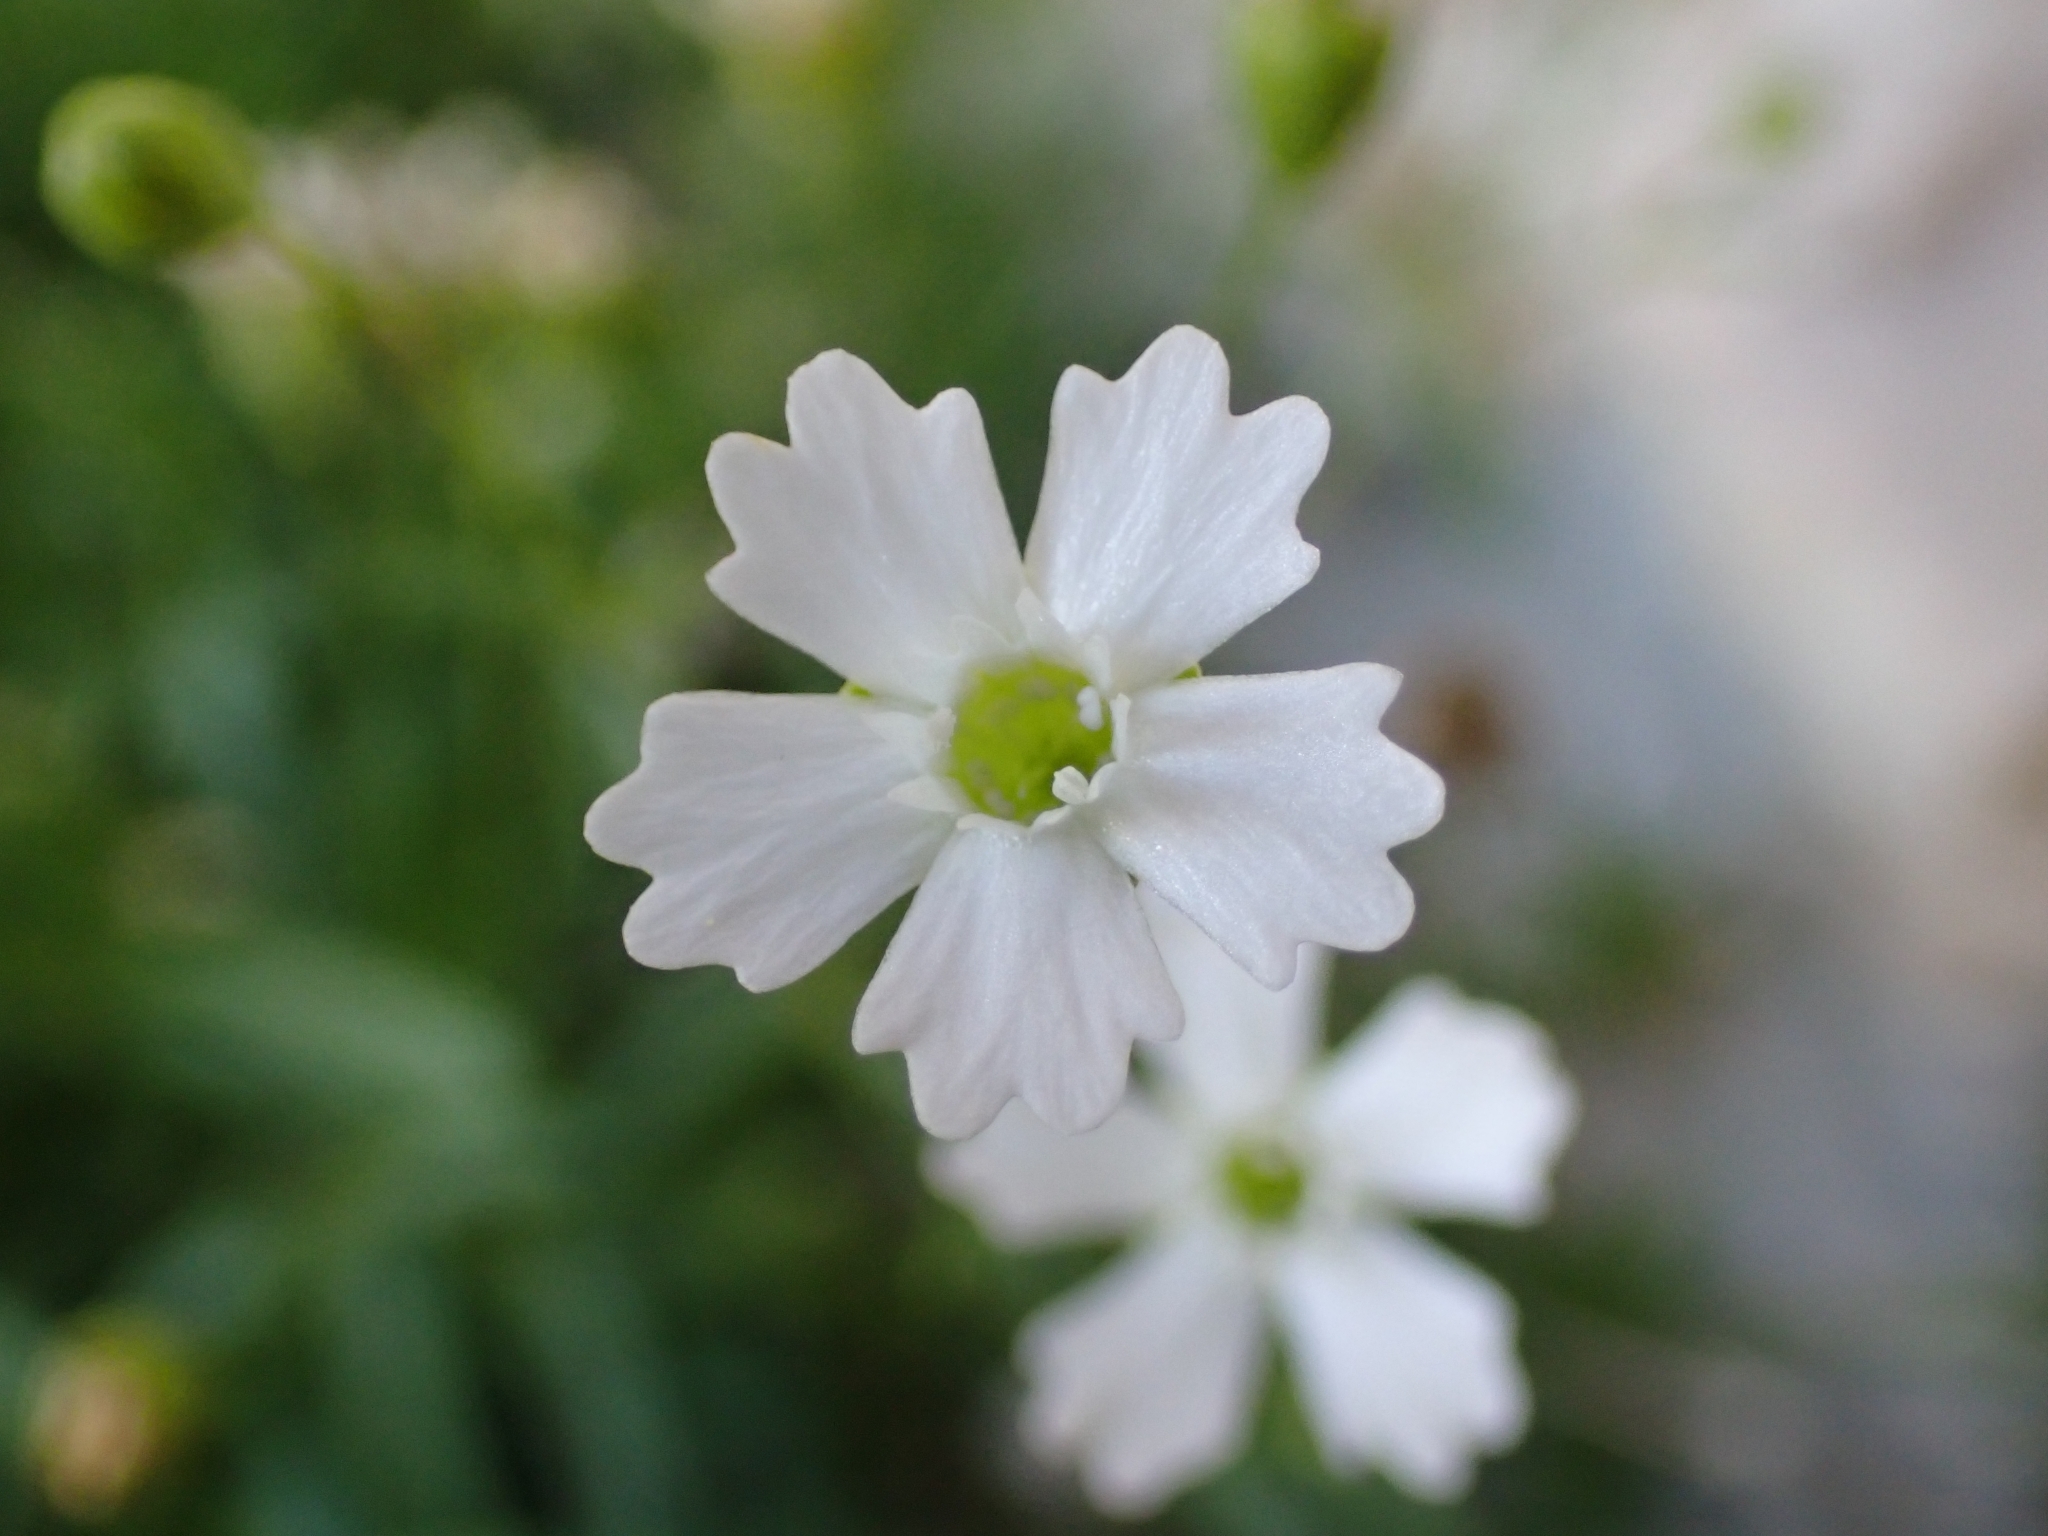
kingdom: Plantae
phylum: Tracheophyta
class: Magnoliopsida
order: Caryophyllales
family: Caryophyllaceae
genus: Heliosperma
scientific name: Heliosperma pusillum
